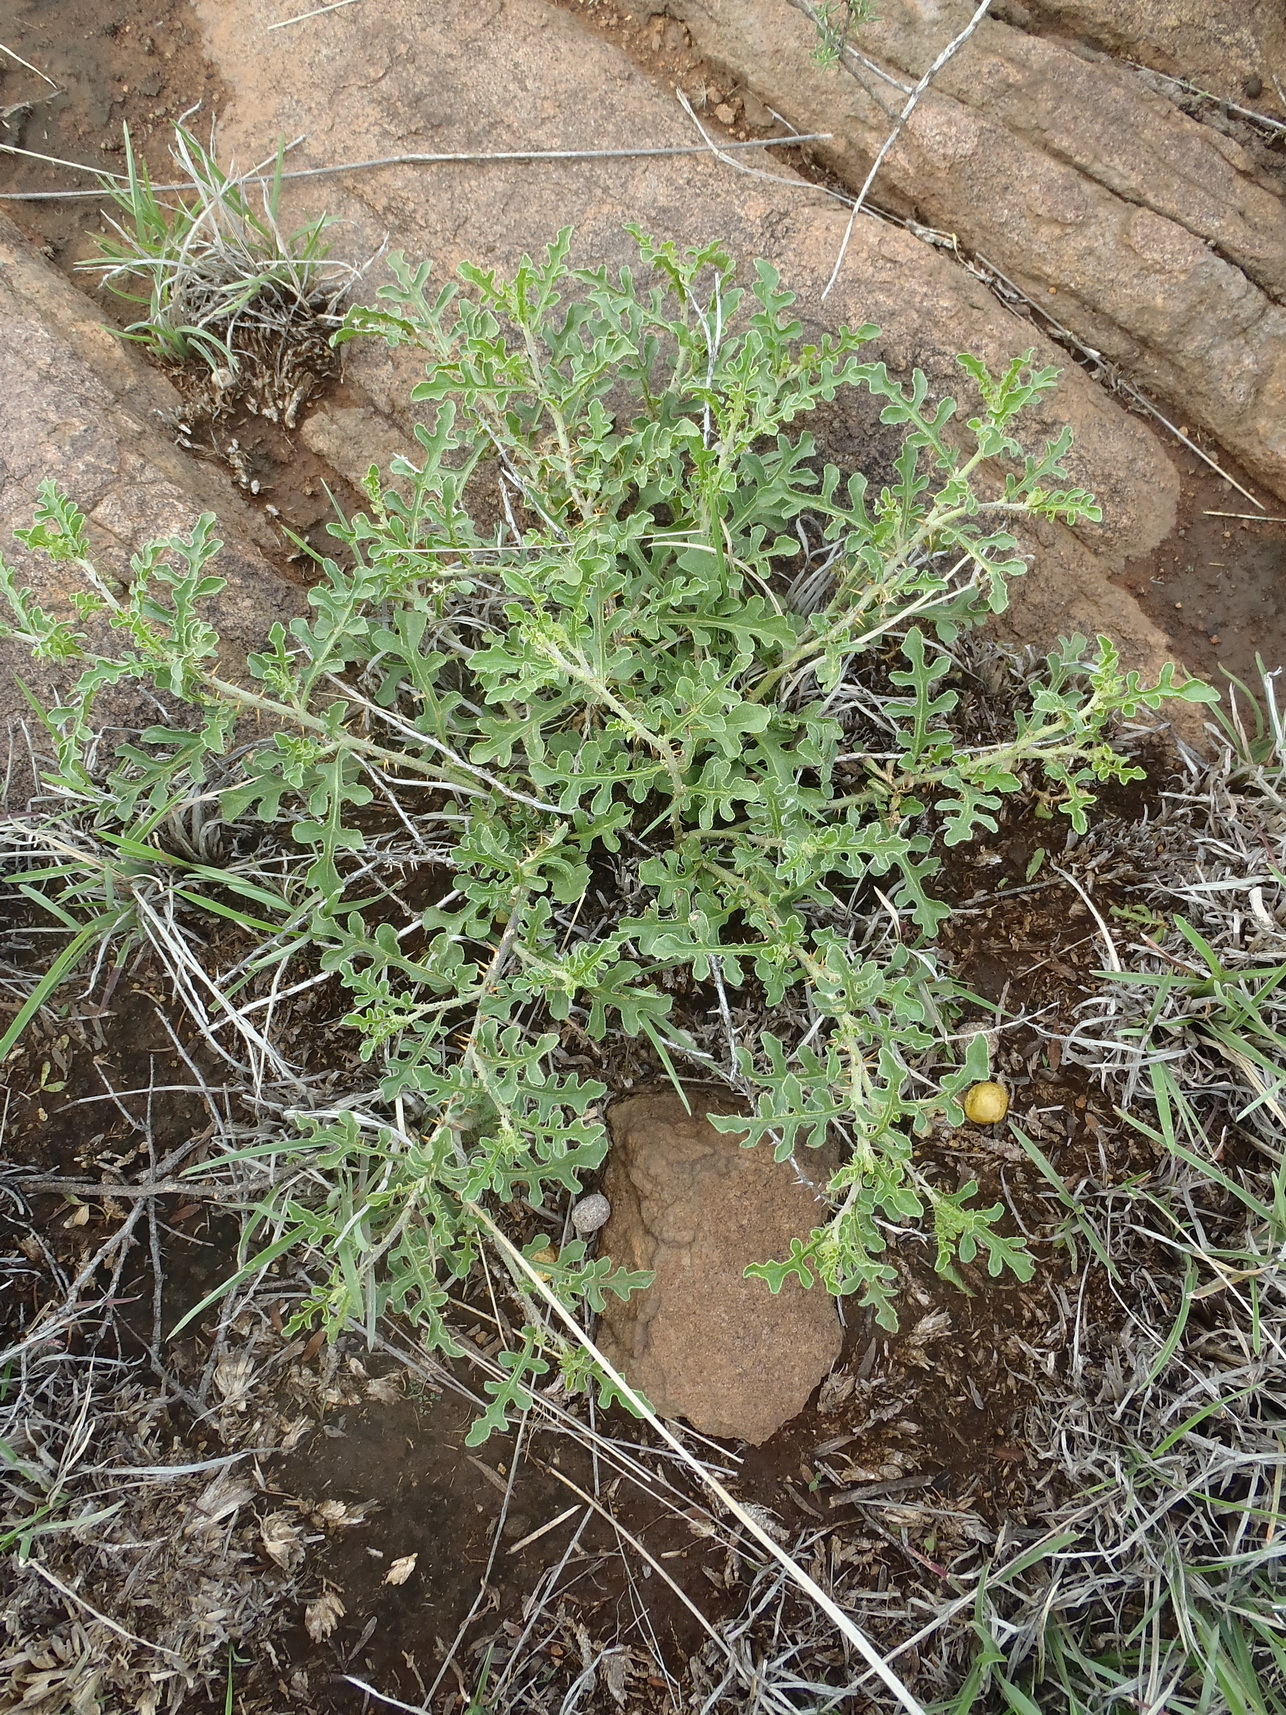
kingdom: Plantae
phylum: Tracheophyta
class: Magnoliopsida
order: Solanales
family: Solanaceae
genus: Solanum
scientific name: Solanum supinum
